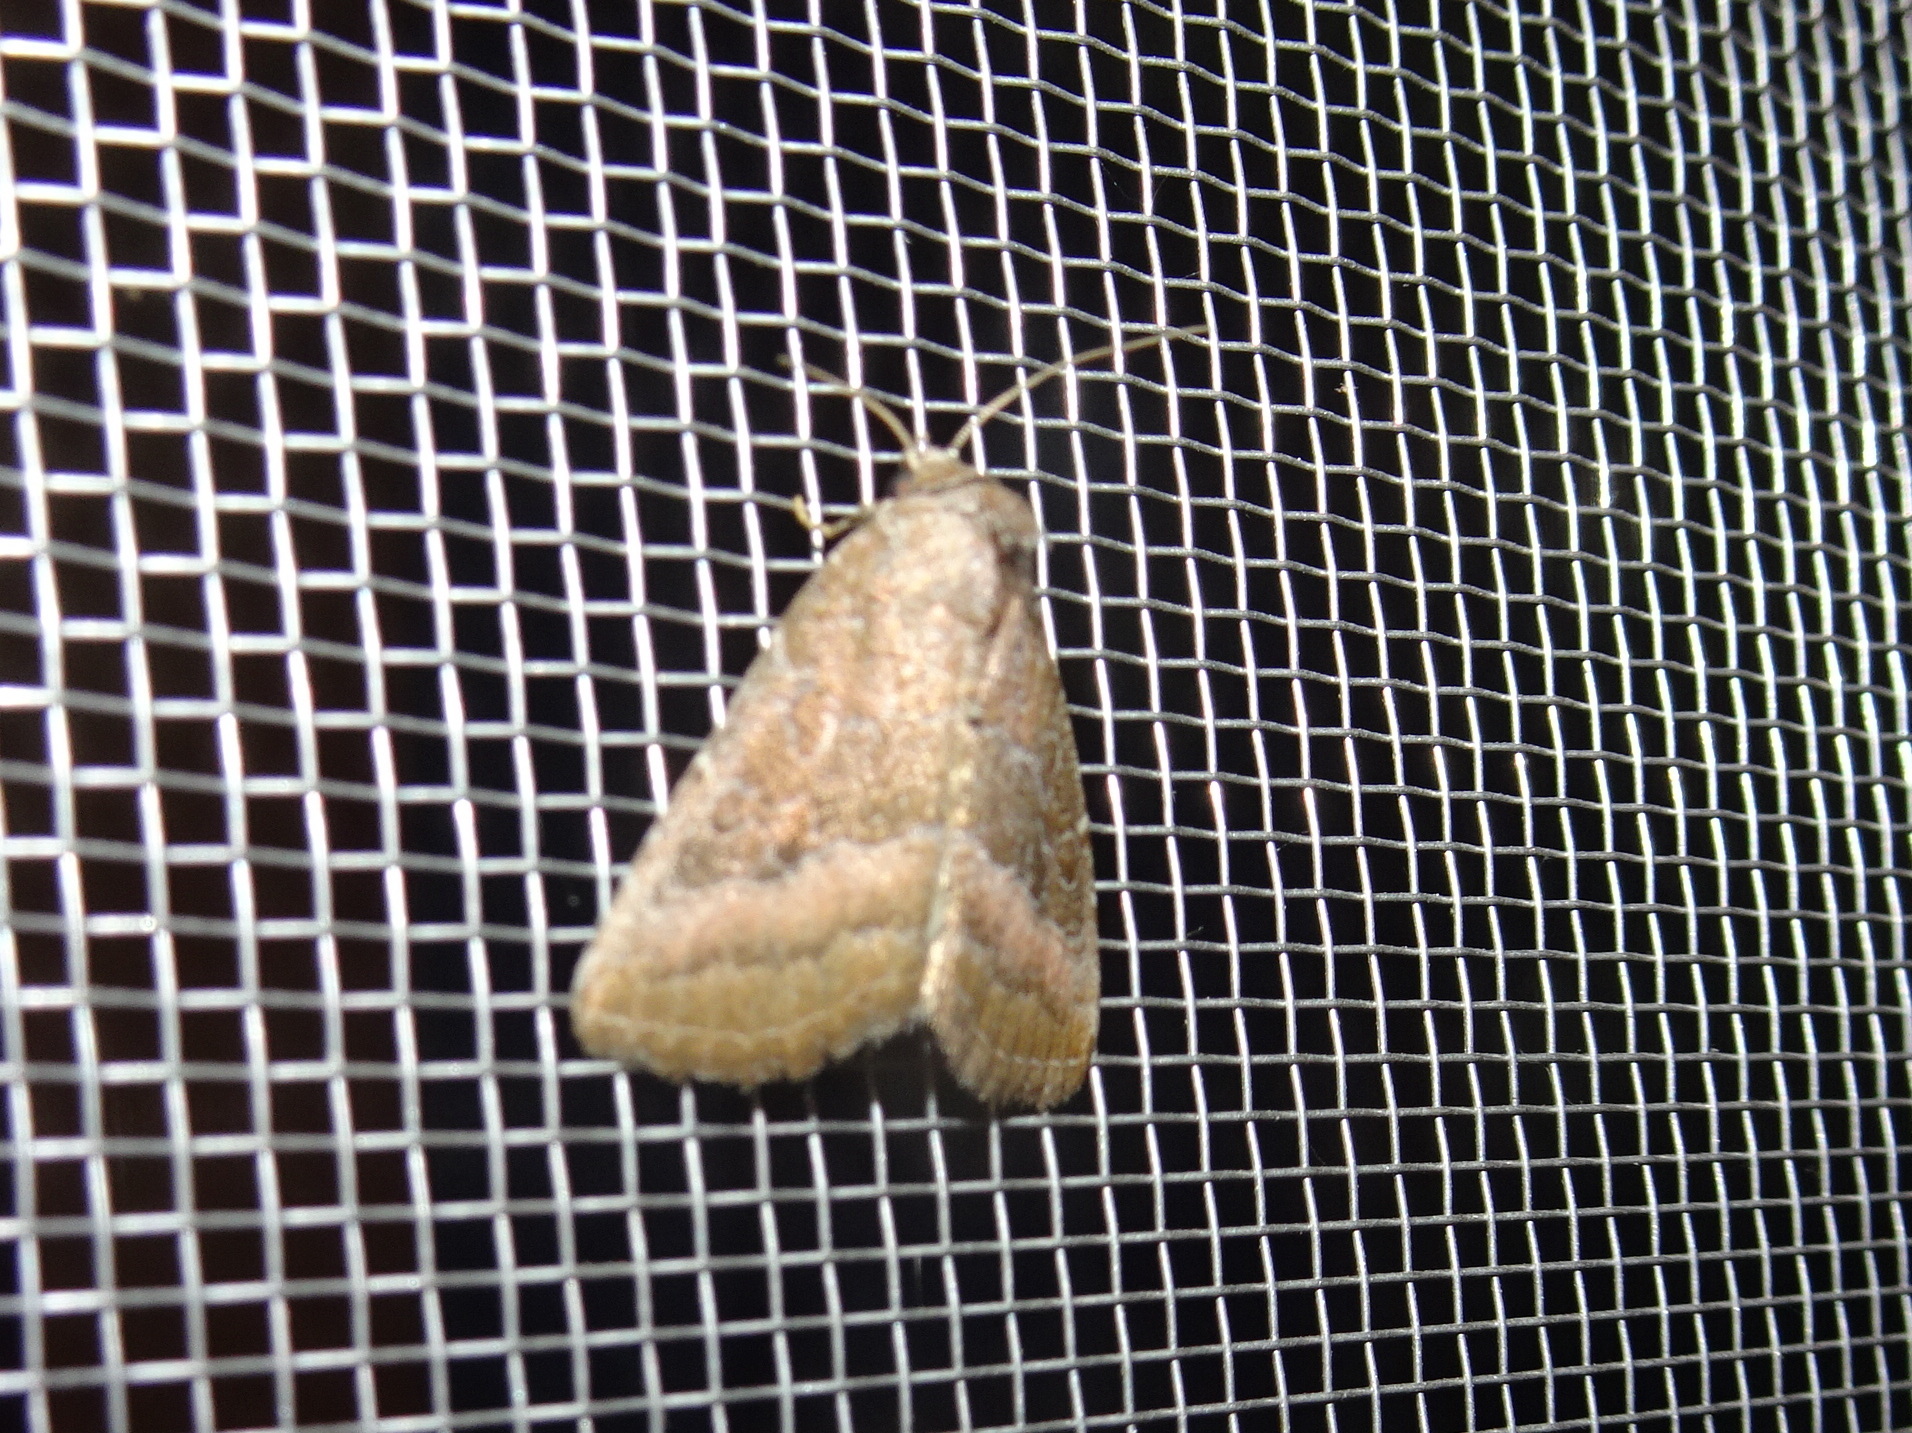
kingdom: Animalia
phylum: Arthropoda
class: Insecta
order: Lepidoptera
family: Noctuidae
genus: Ogdoconta
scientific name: Ogdoconta cinereola
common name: Common pinkband
